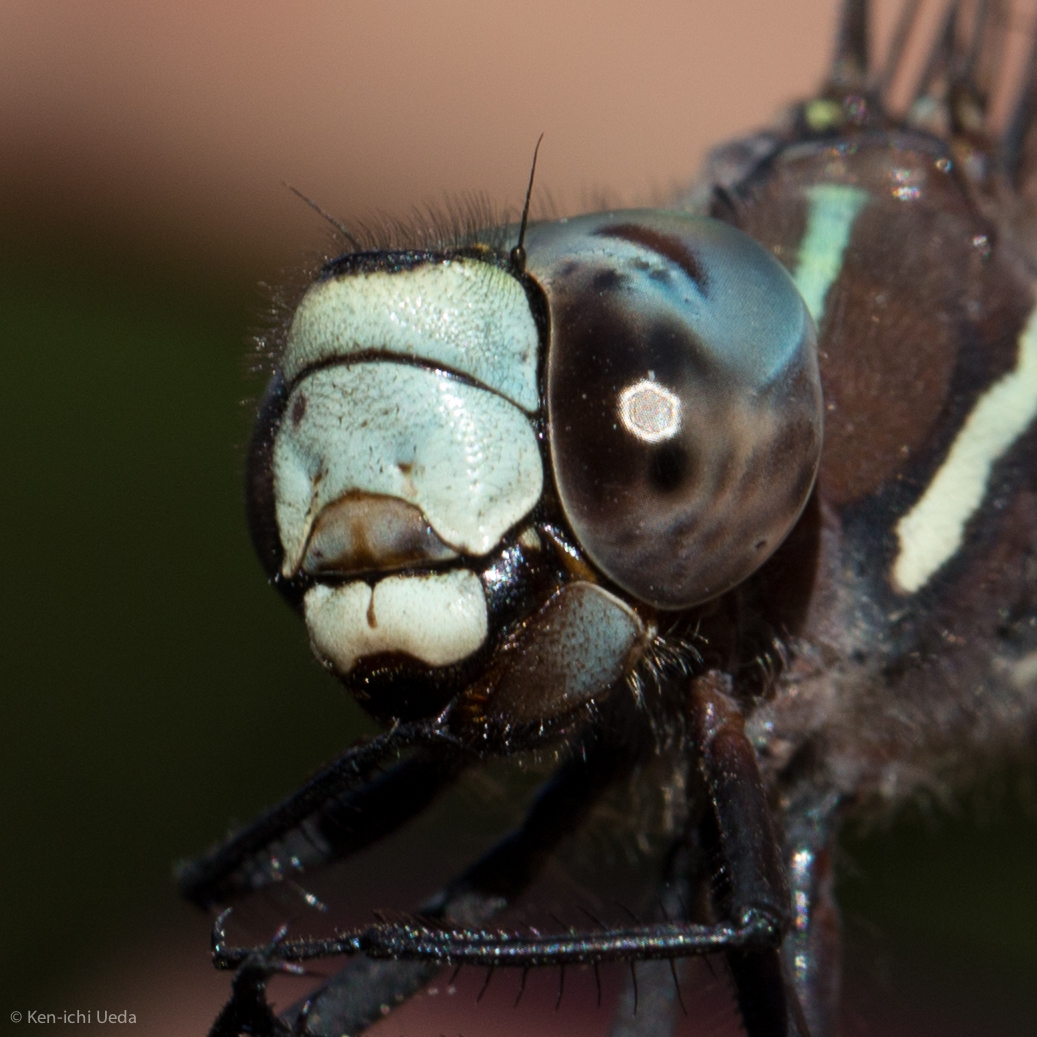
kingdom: Animalia
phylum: Arthropoda
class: Insecta
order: Odonata
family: Aeshnidae
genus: Aeshna
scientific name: Aeshna walkeri
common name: Walker's darner
